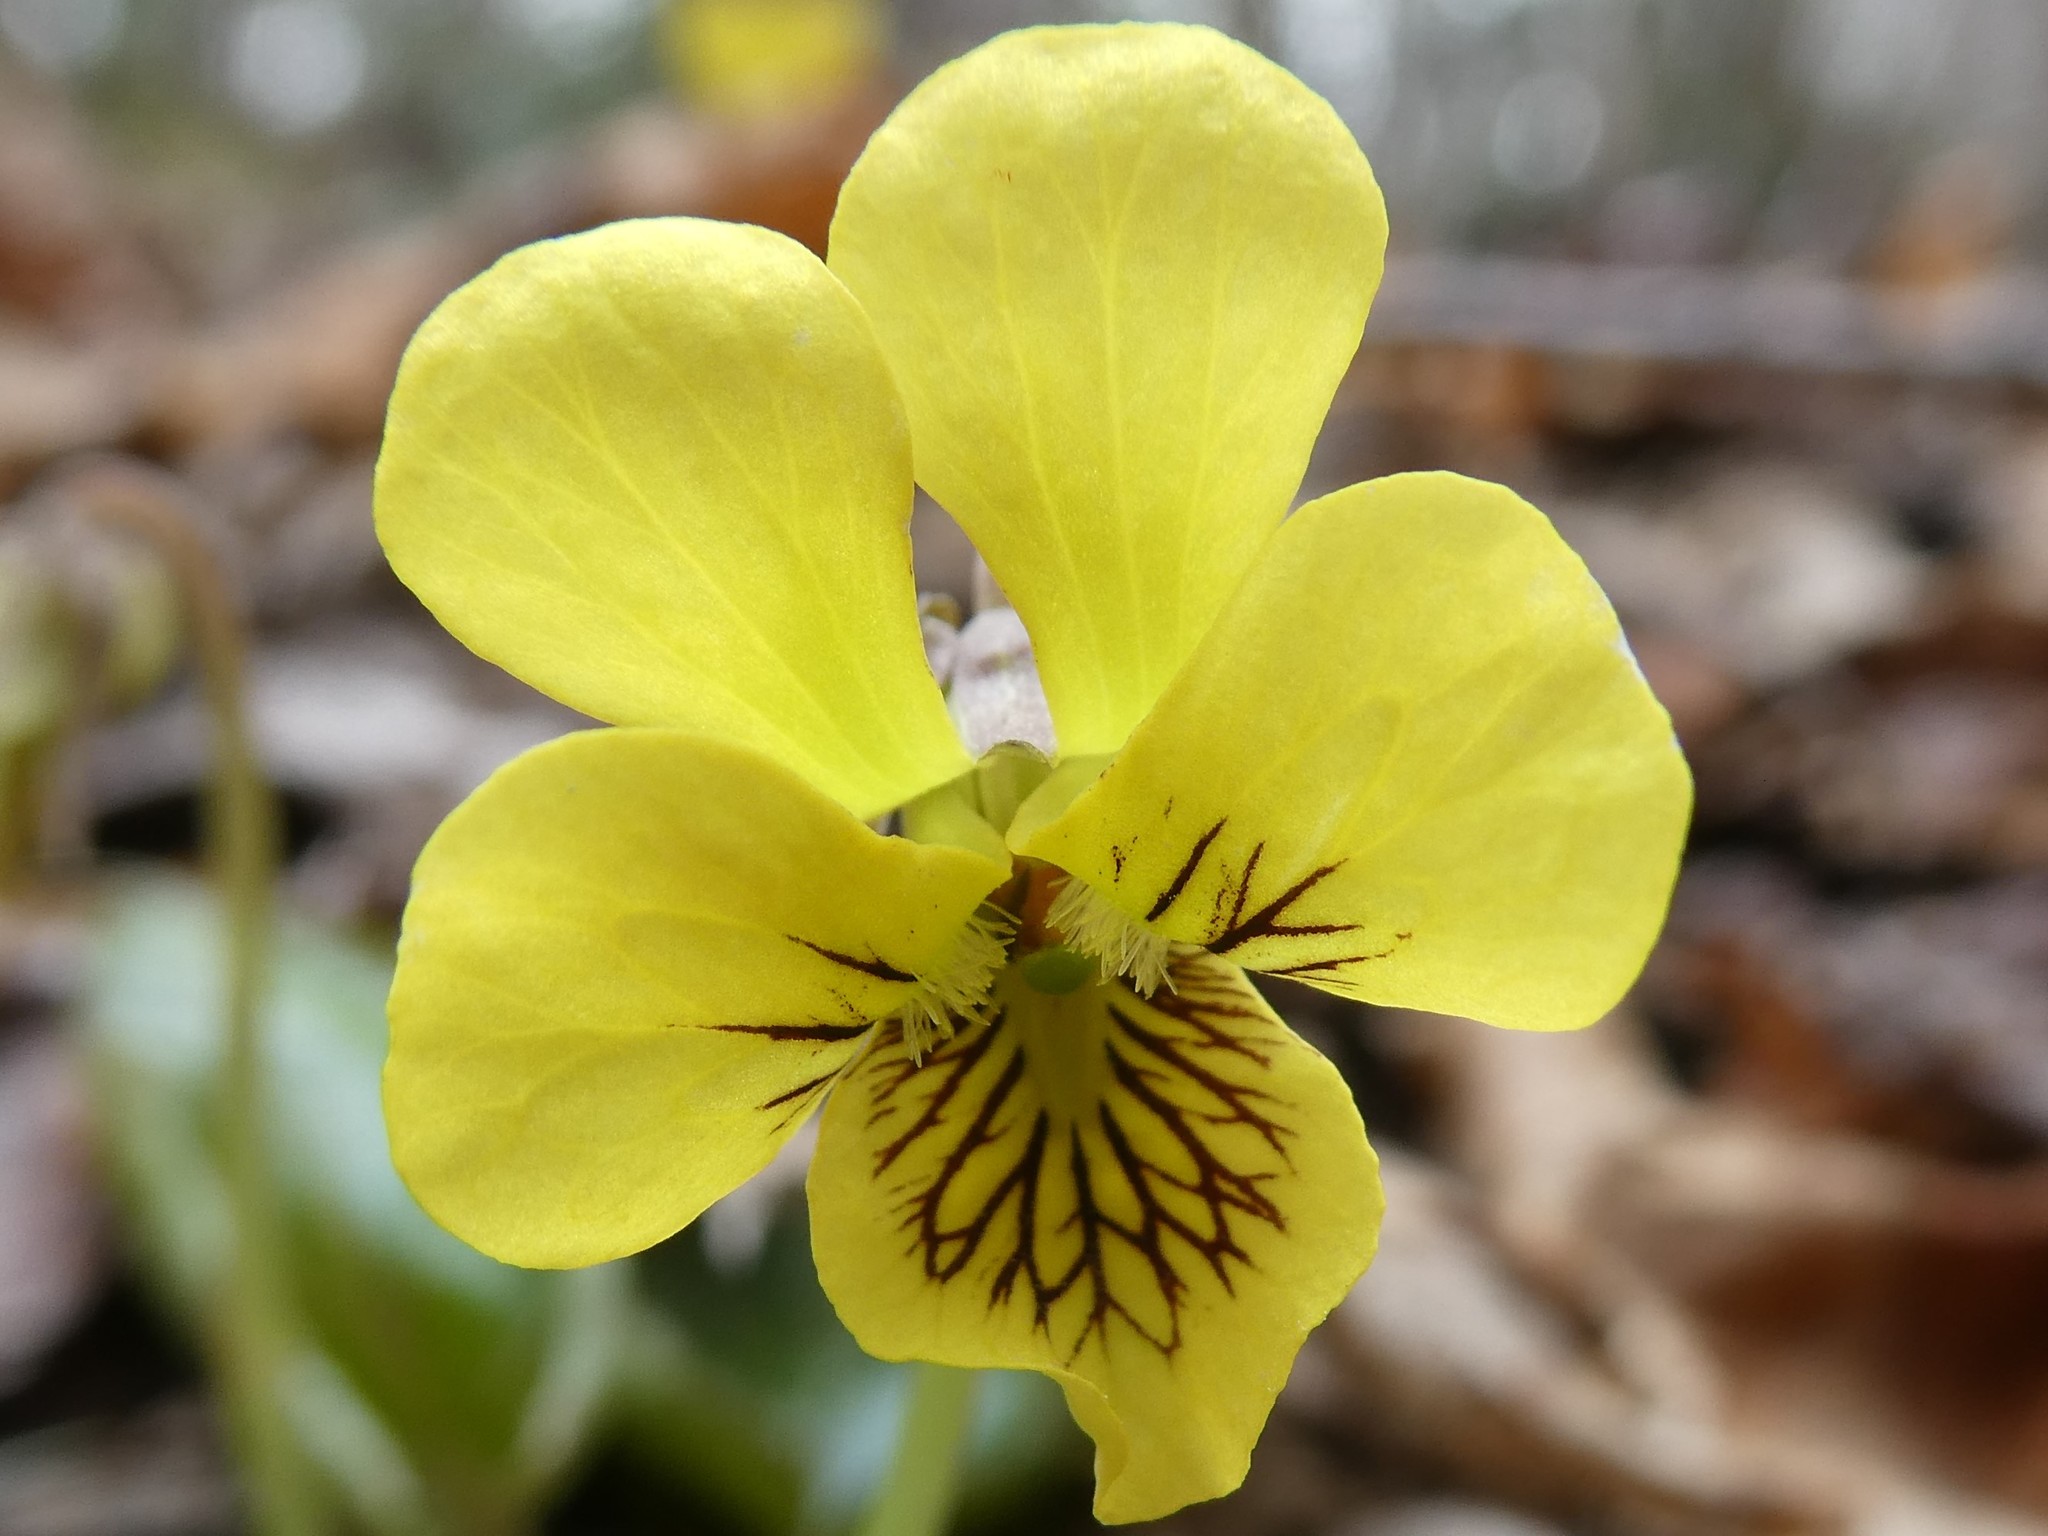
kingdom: Plantae
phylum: Tracheophyta
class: Magnoliopsida
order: Malpighiales
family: Violaceae
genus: Viola
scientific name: Viola rotundifolia
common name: Early yellow violet
